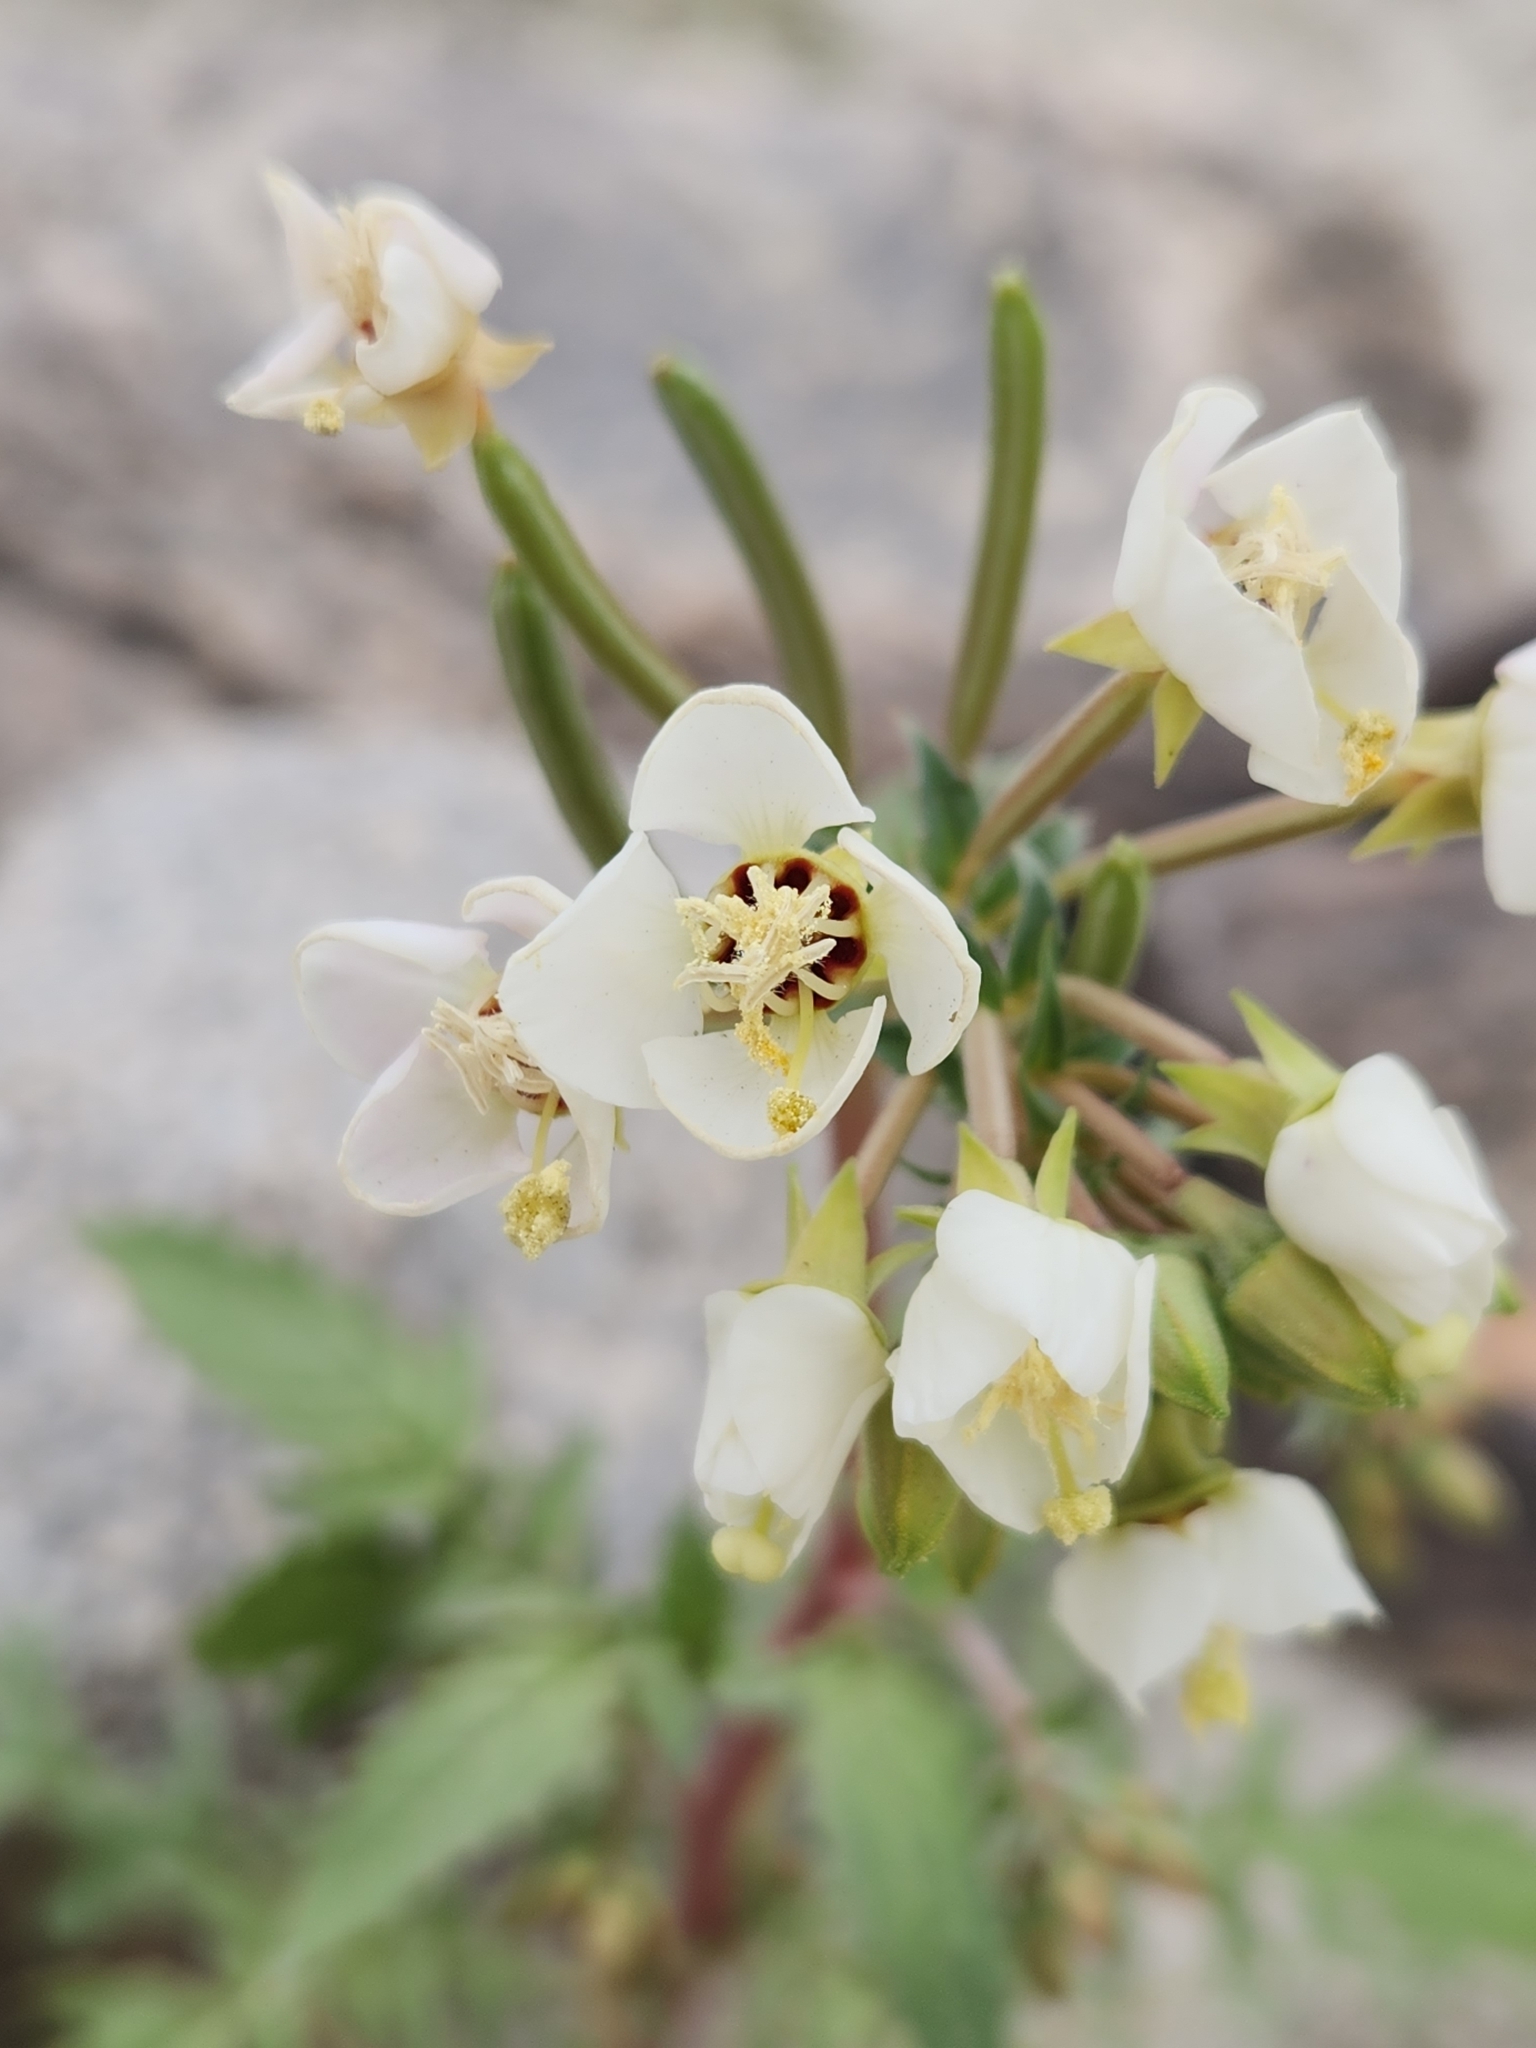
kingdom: Plantae
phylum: Tracheophyta
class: Magnoliopsida
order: Myrtales
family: Onagraceae
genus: Chylismia
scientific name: Chylismia claviformis
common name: Browneyes
